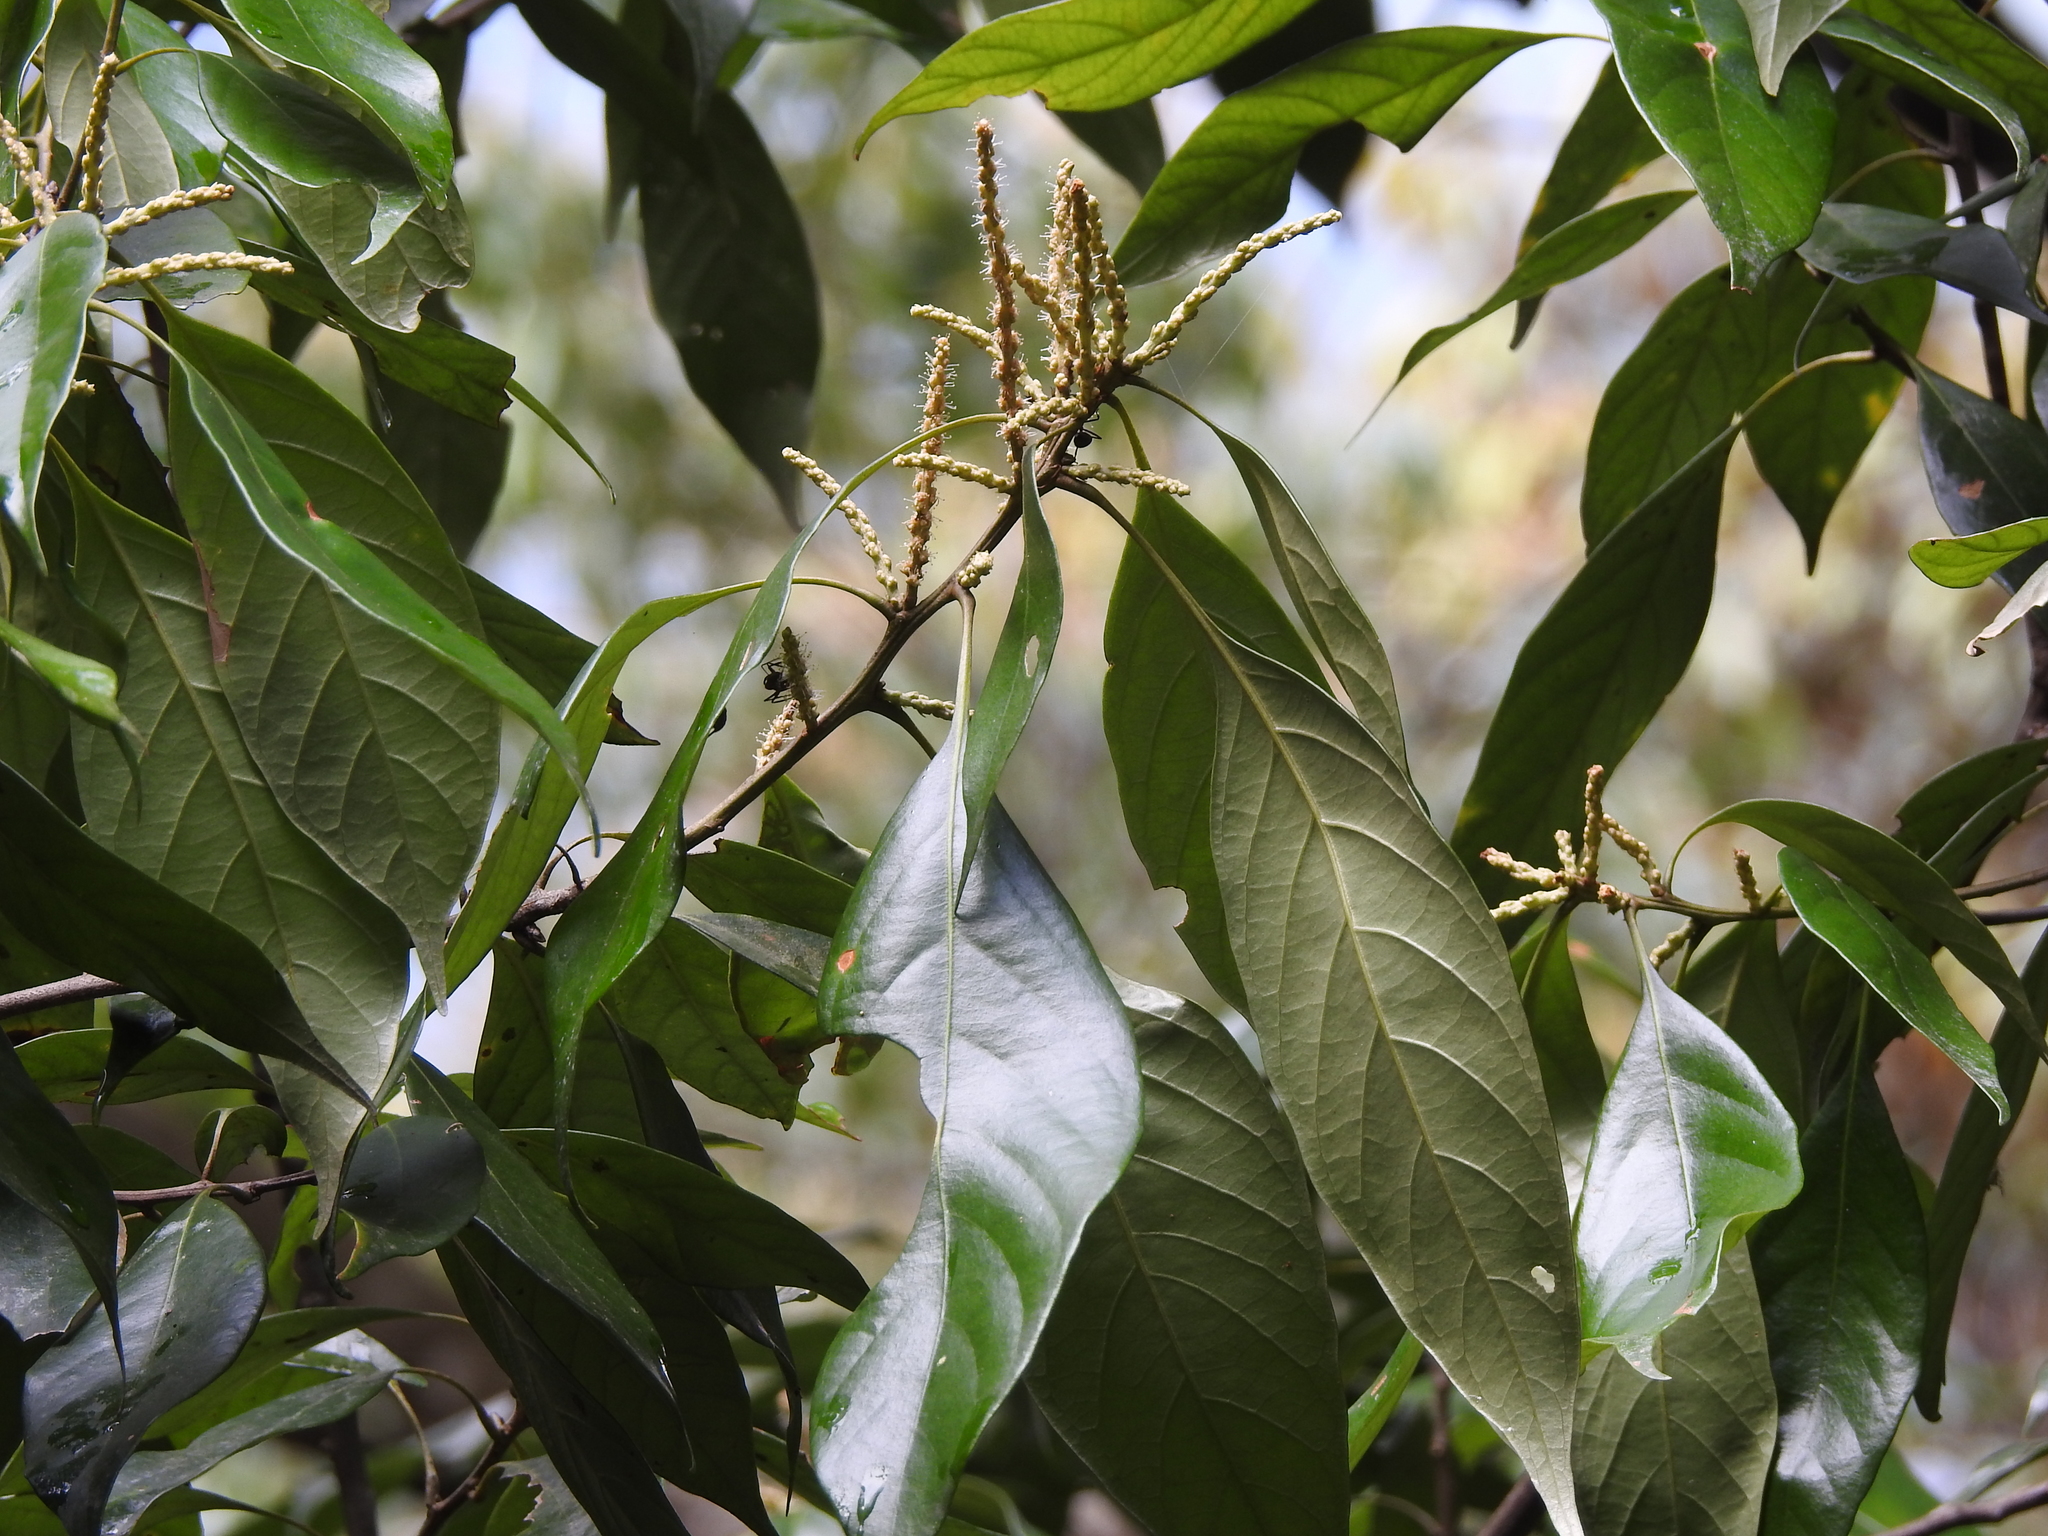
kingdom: Plantae
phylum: Tracheophyta
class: Magnoliopsida
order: Fagales
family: Fagaceae
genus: Lithocarpus
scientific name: Lithocarpus glaber
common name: Japanese-oak
